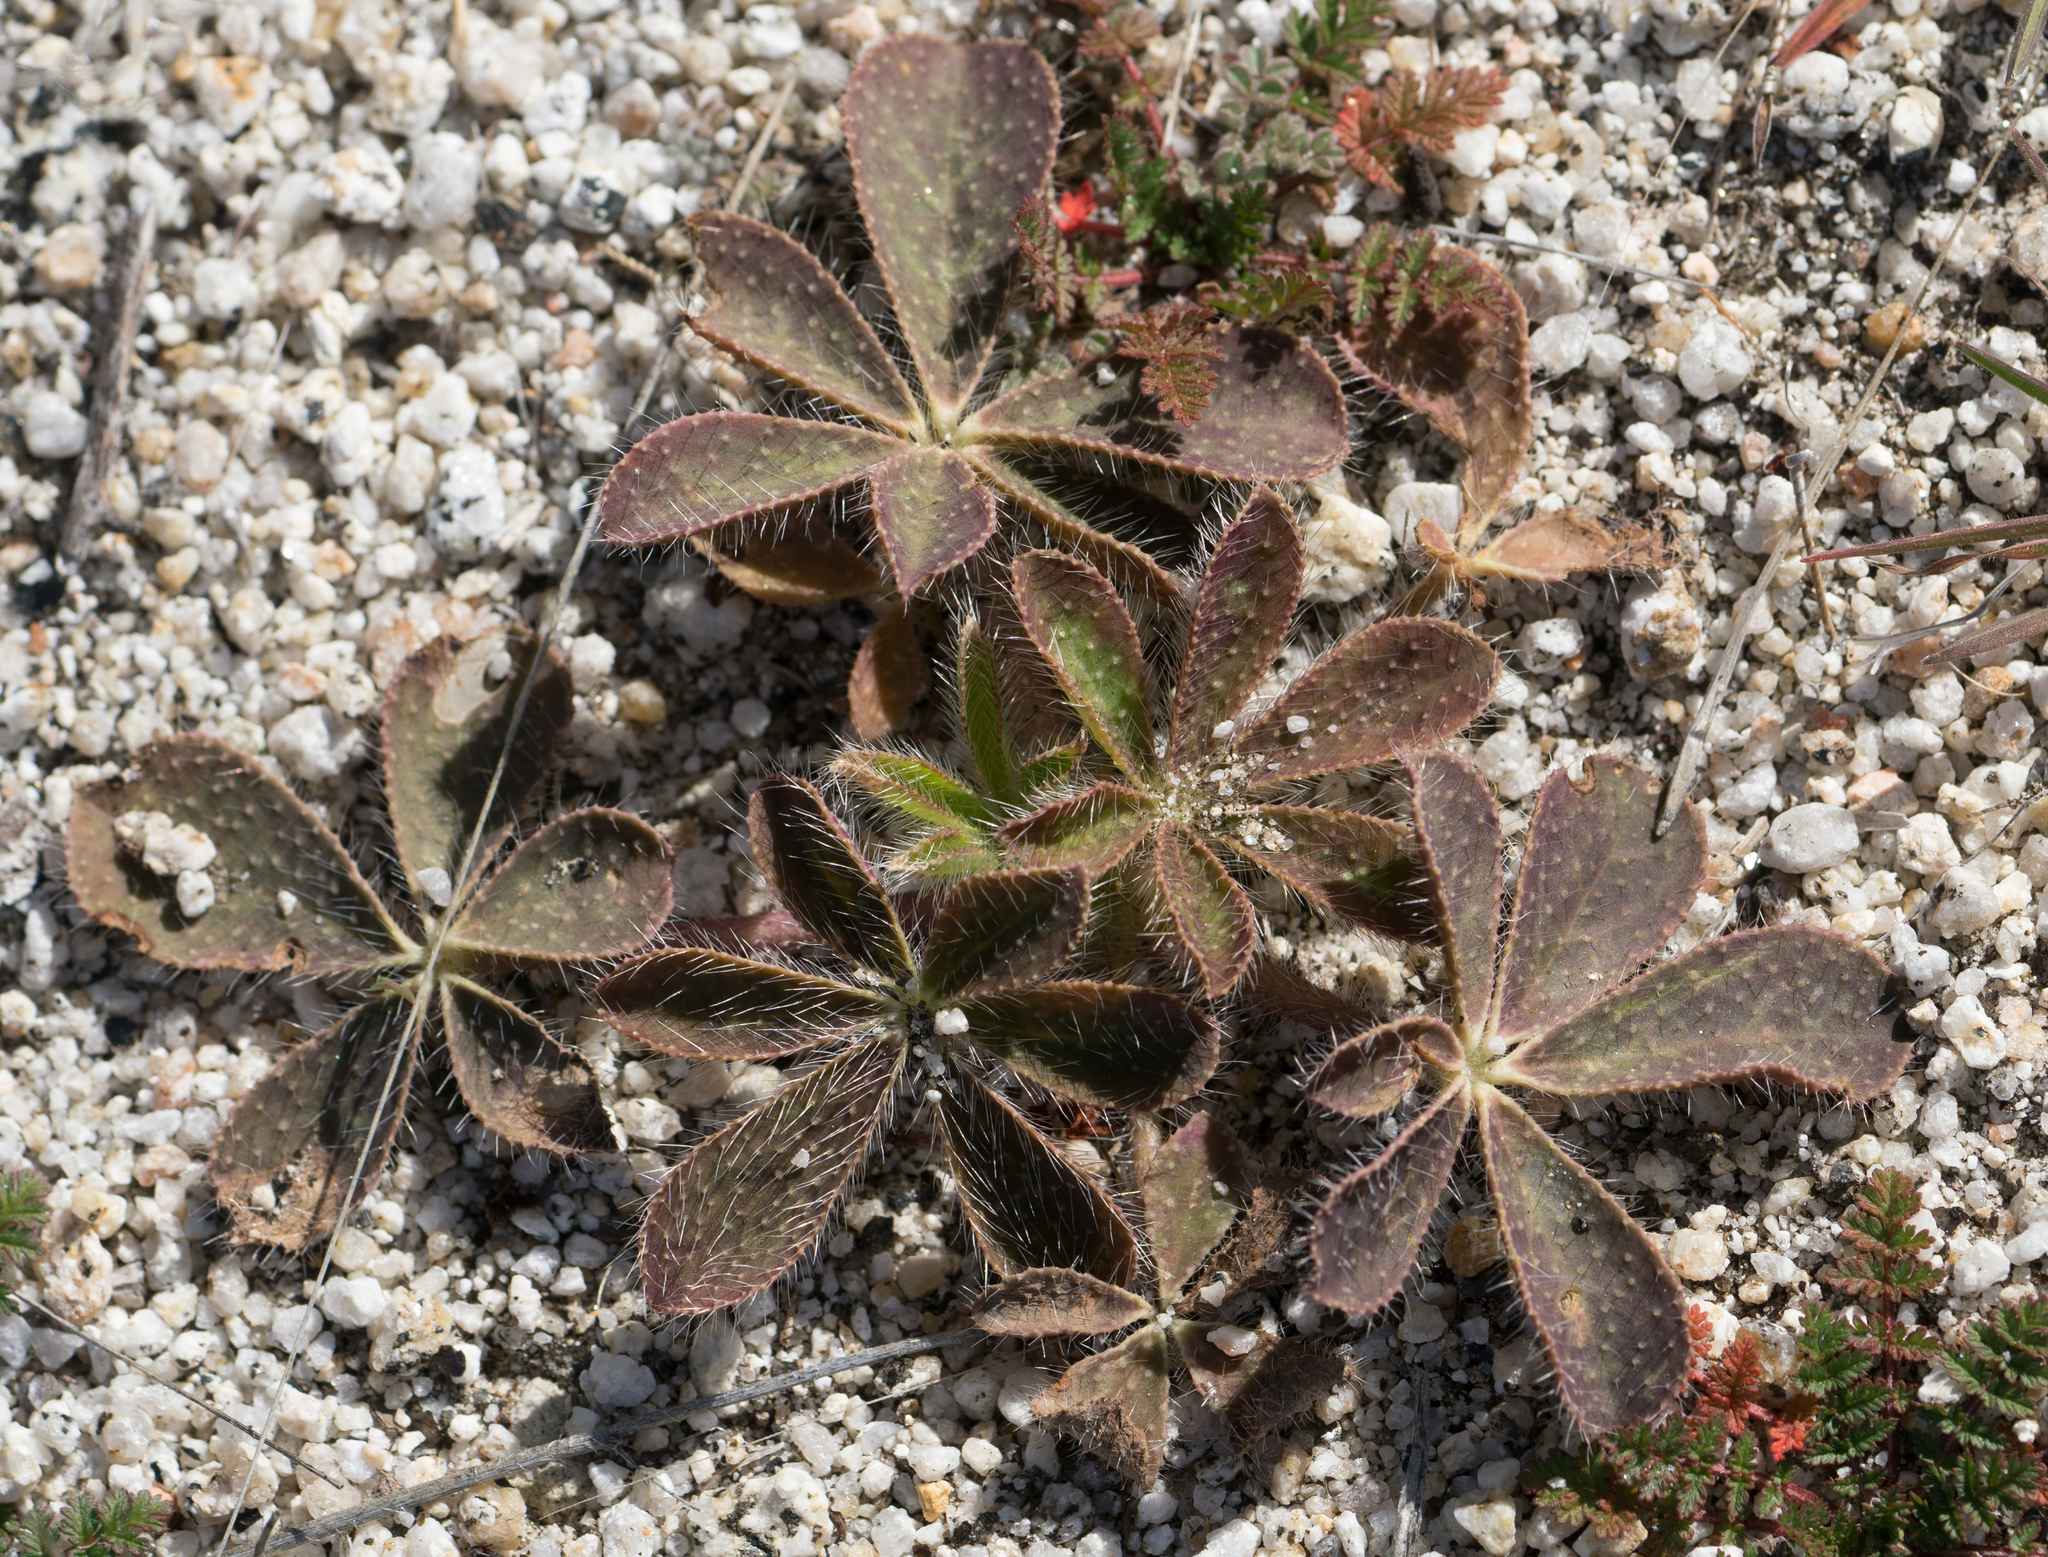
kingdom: Plantae
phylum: Tracheophyta
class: Magnoliopsida
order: Fabales
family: Fabaceae
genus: Lupinus
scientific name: Lupinus hirsutissimus
